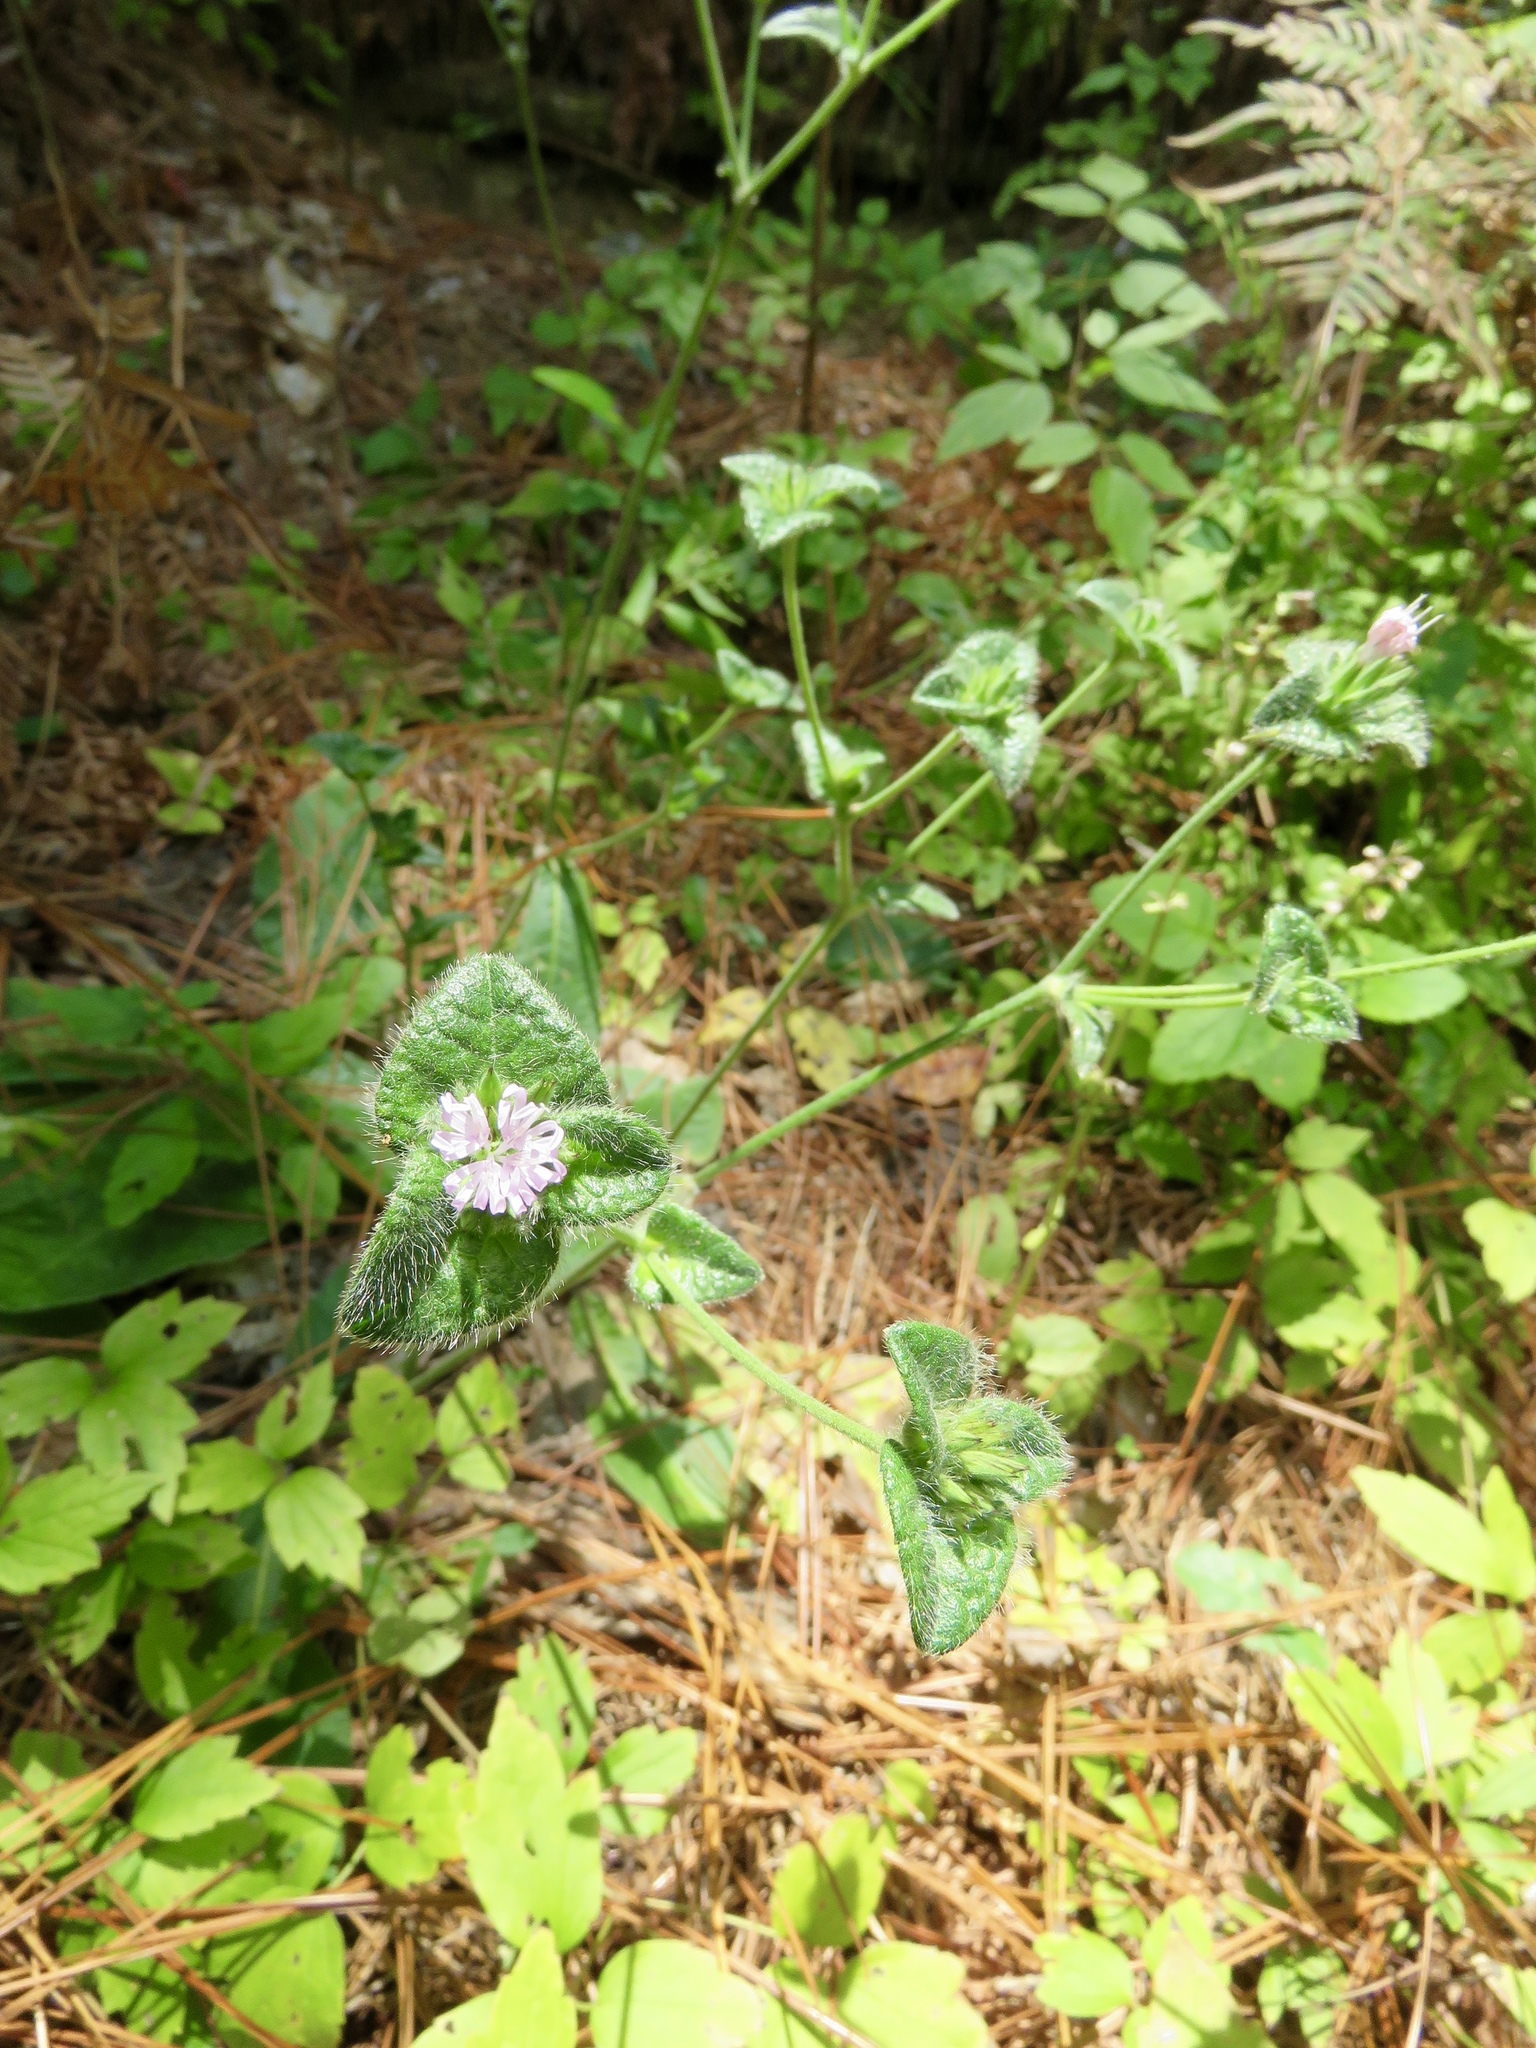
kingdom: Plantae
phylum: Tracheophyta
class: Magnoliopsida
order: Asterales
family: Asteraceae
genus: Elephantopus
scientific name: Elephantopus carolinianus
